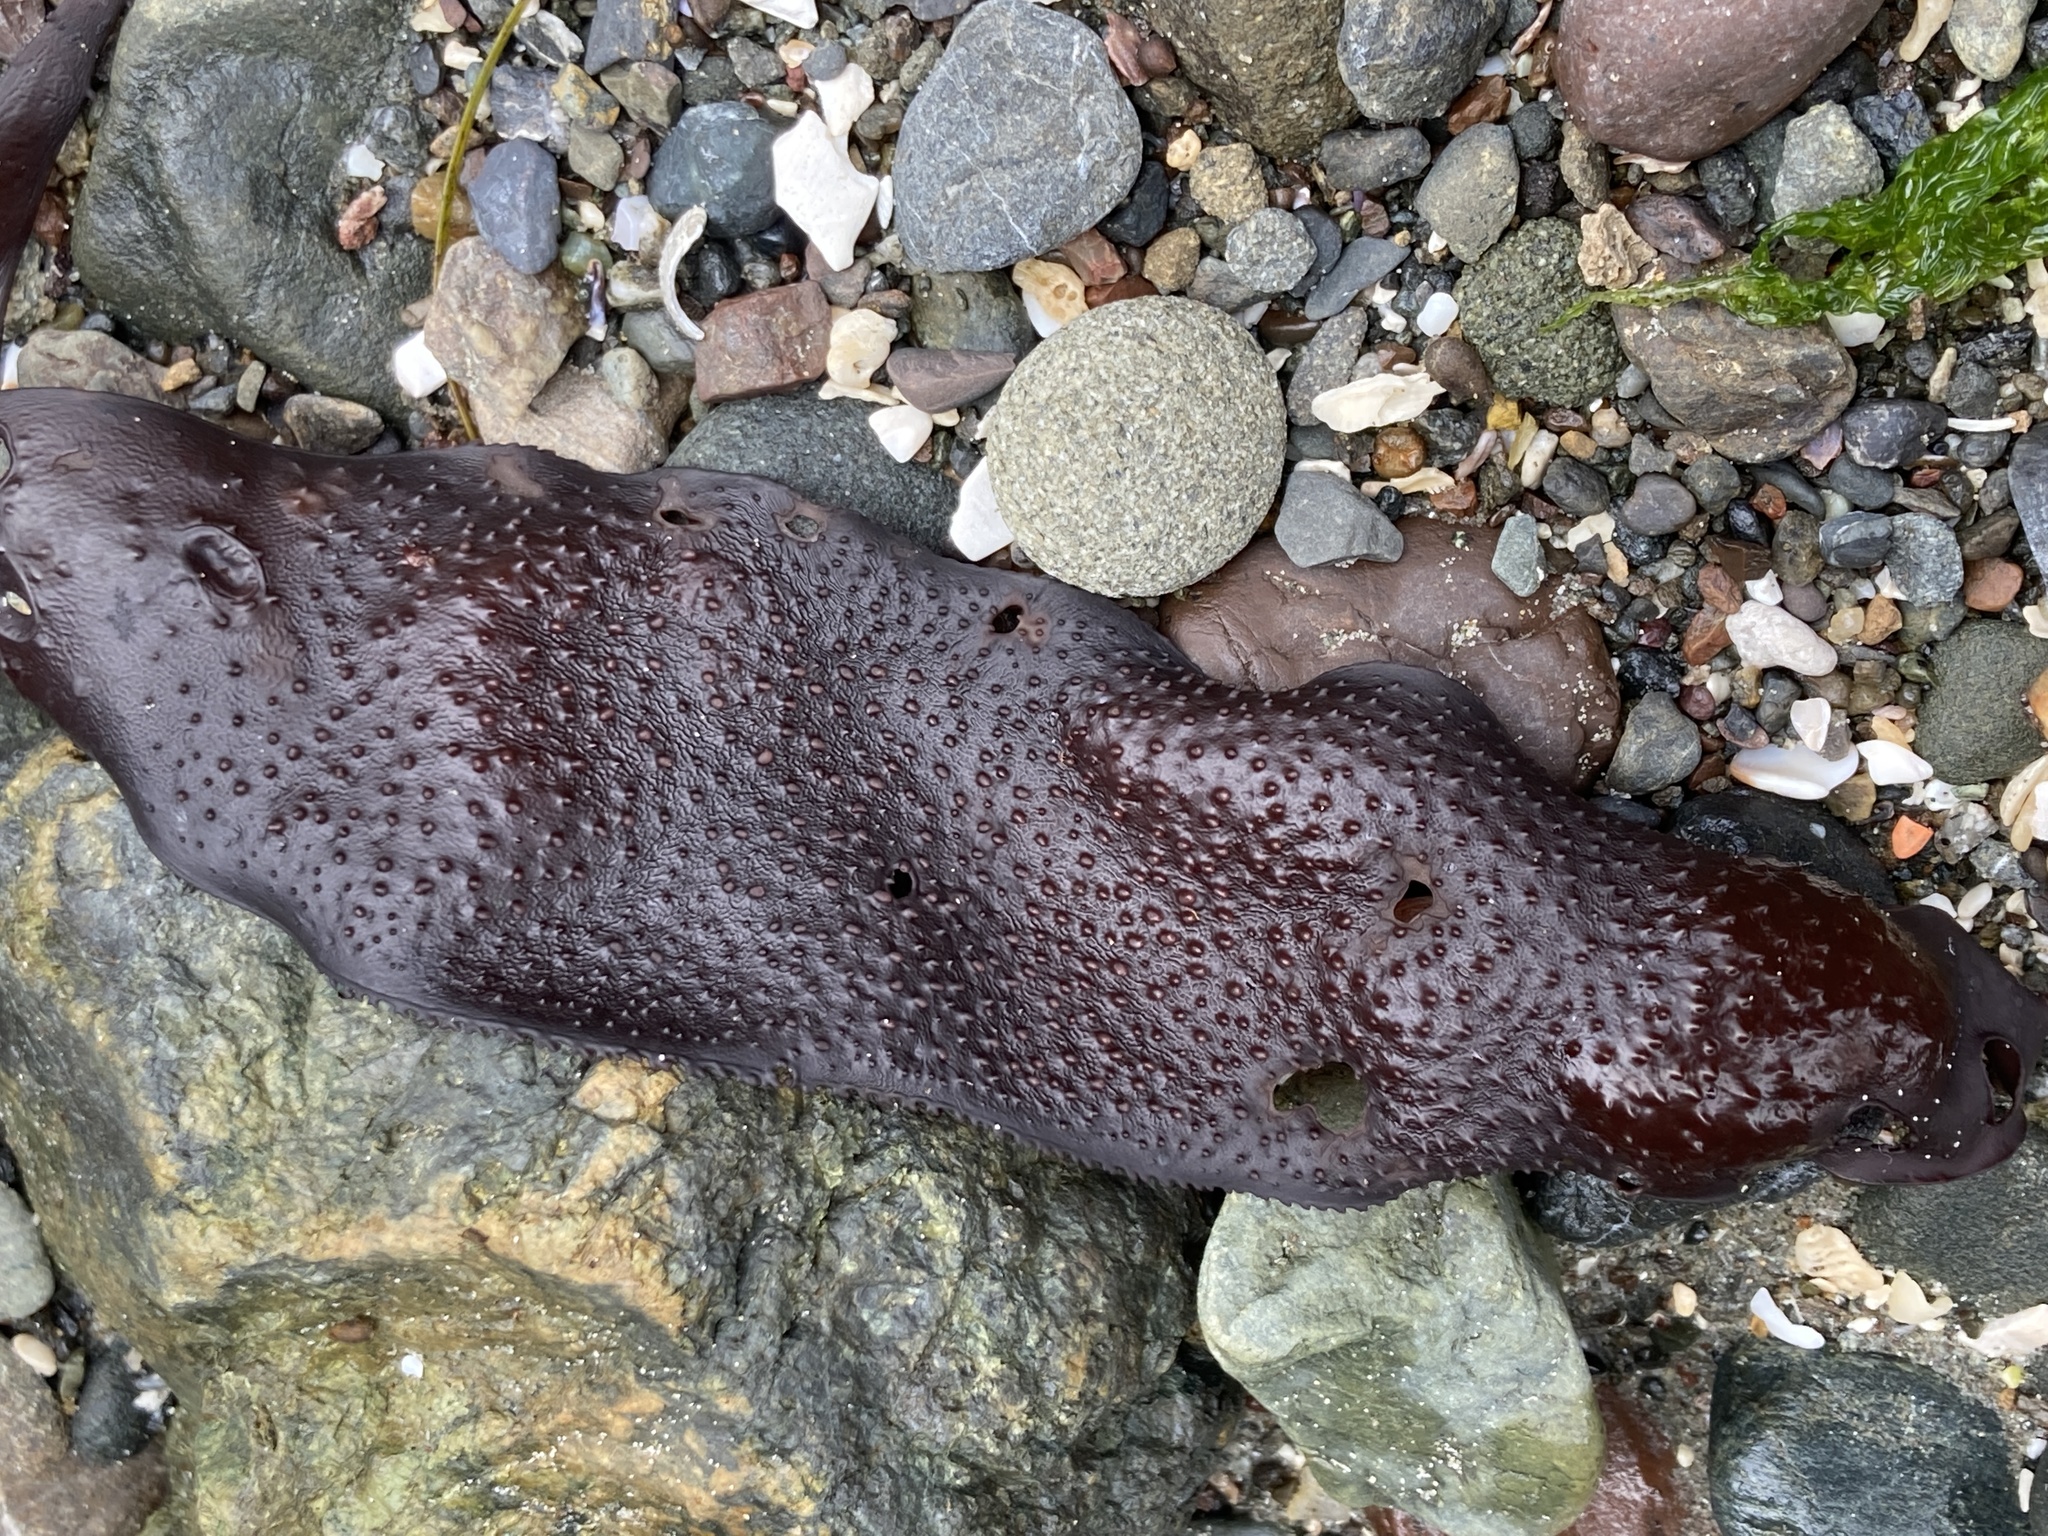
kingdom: Plantae
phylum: Rhodophyta
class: Florideophyceae
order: Gigartinales
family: Gigartinaceae
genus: Chondracanthus
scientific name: Chondracanthus exasperatus
